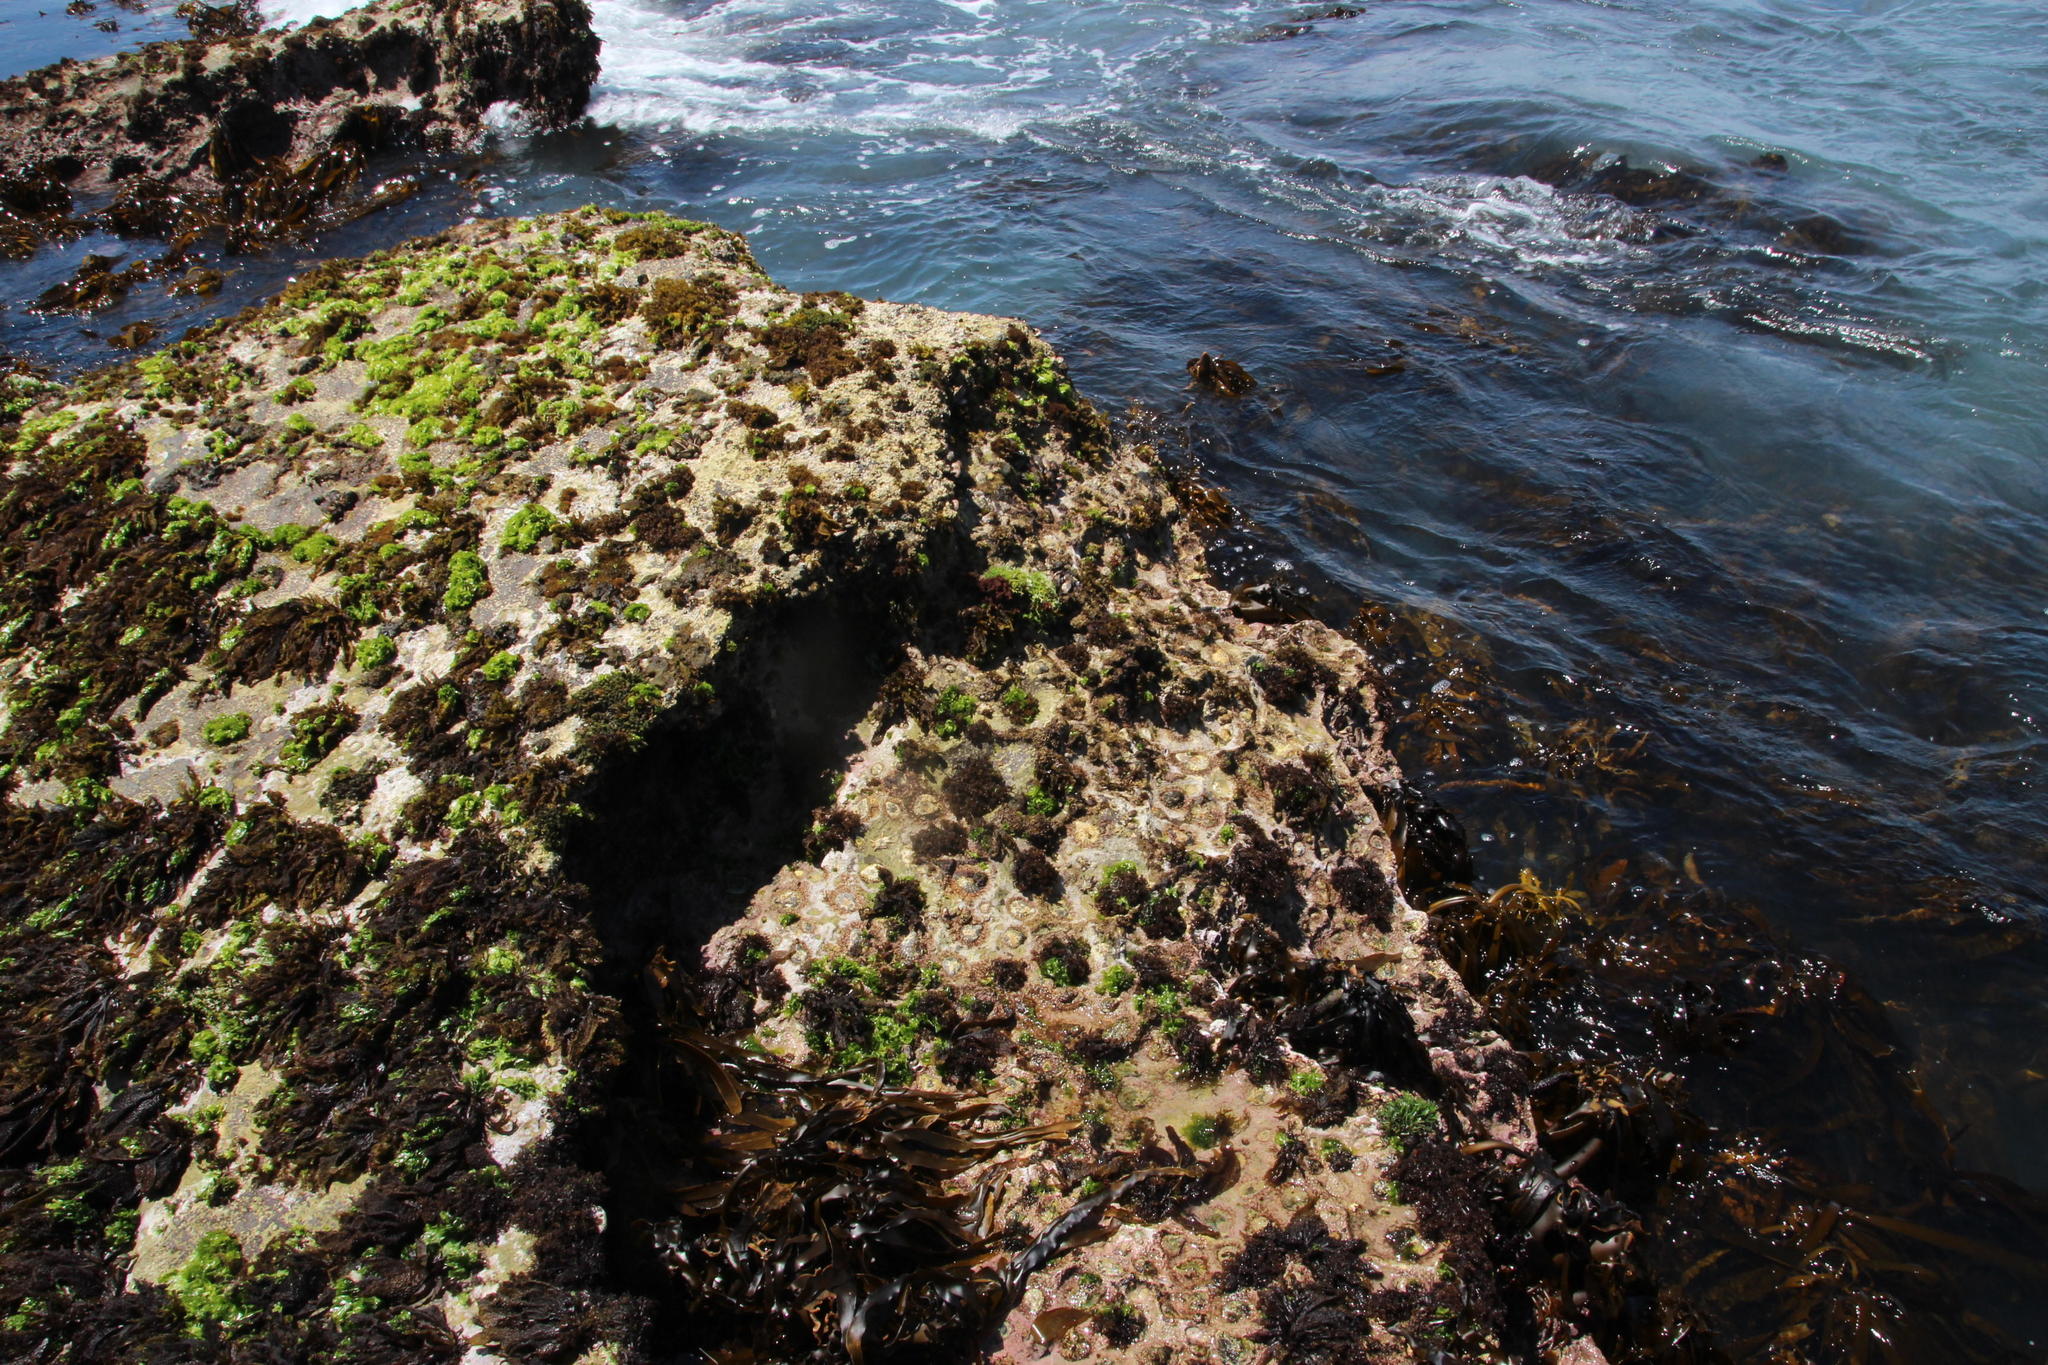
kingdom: Animalia
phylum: Mollusca
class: Gastropoda
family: Patellidae
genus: Scutellastra
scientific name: Scutellastra cochlear
